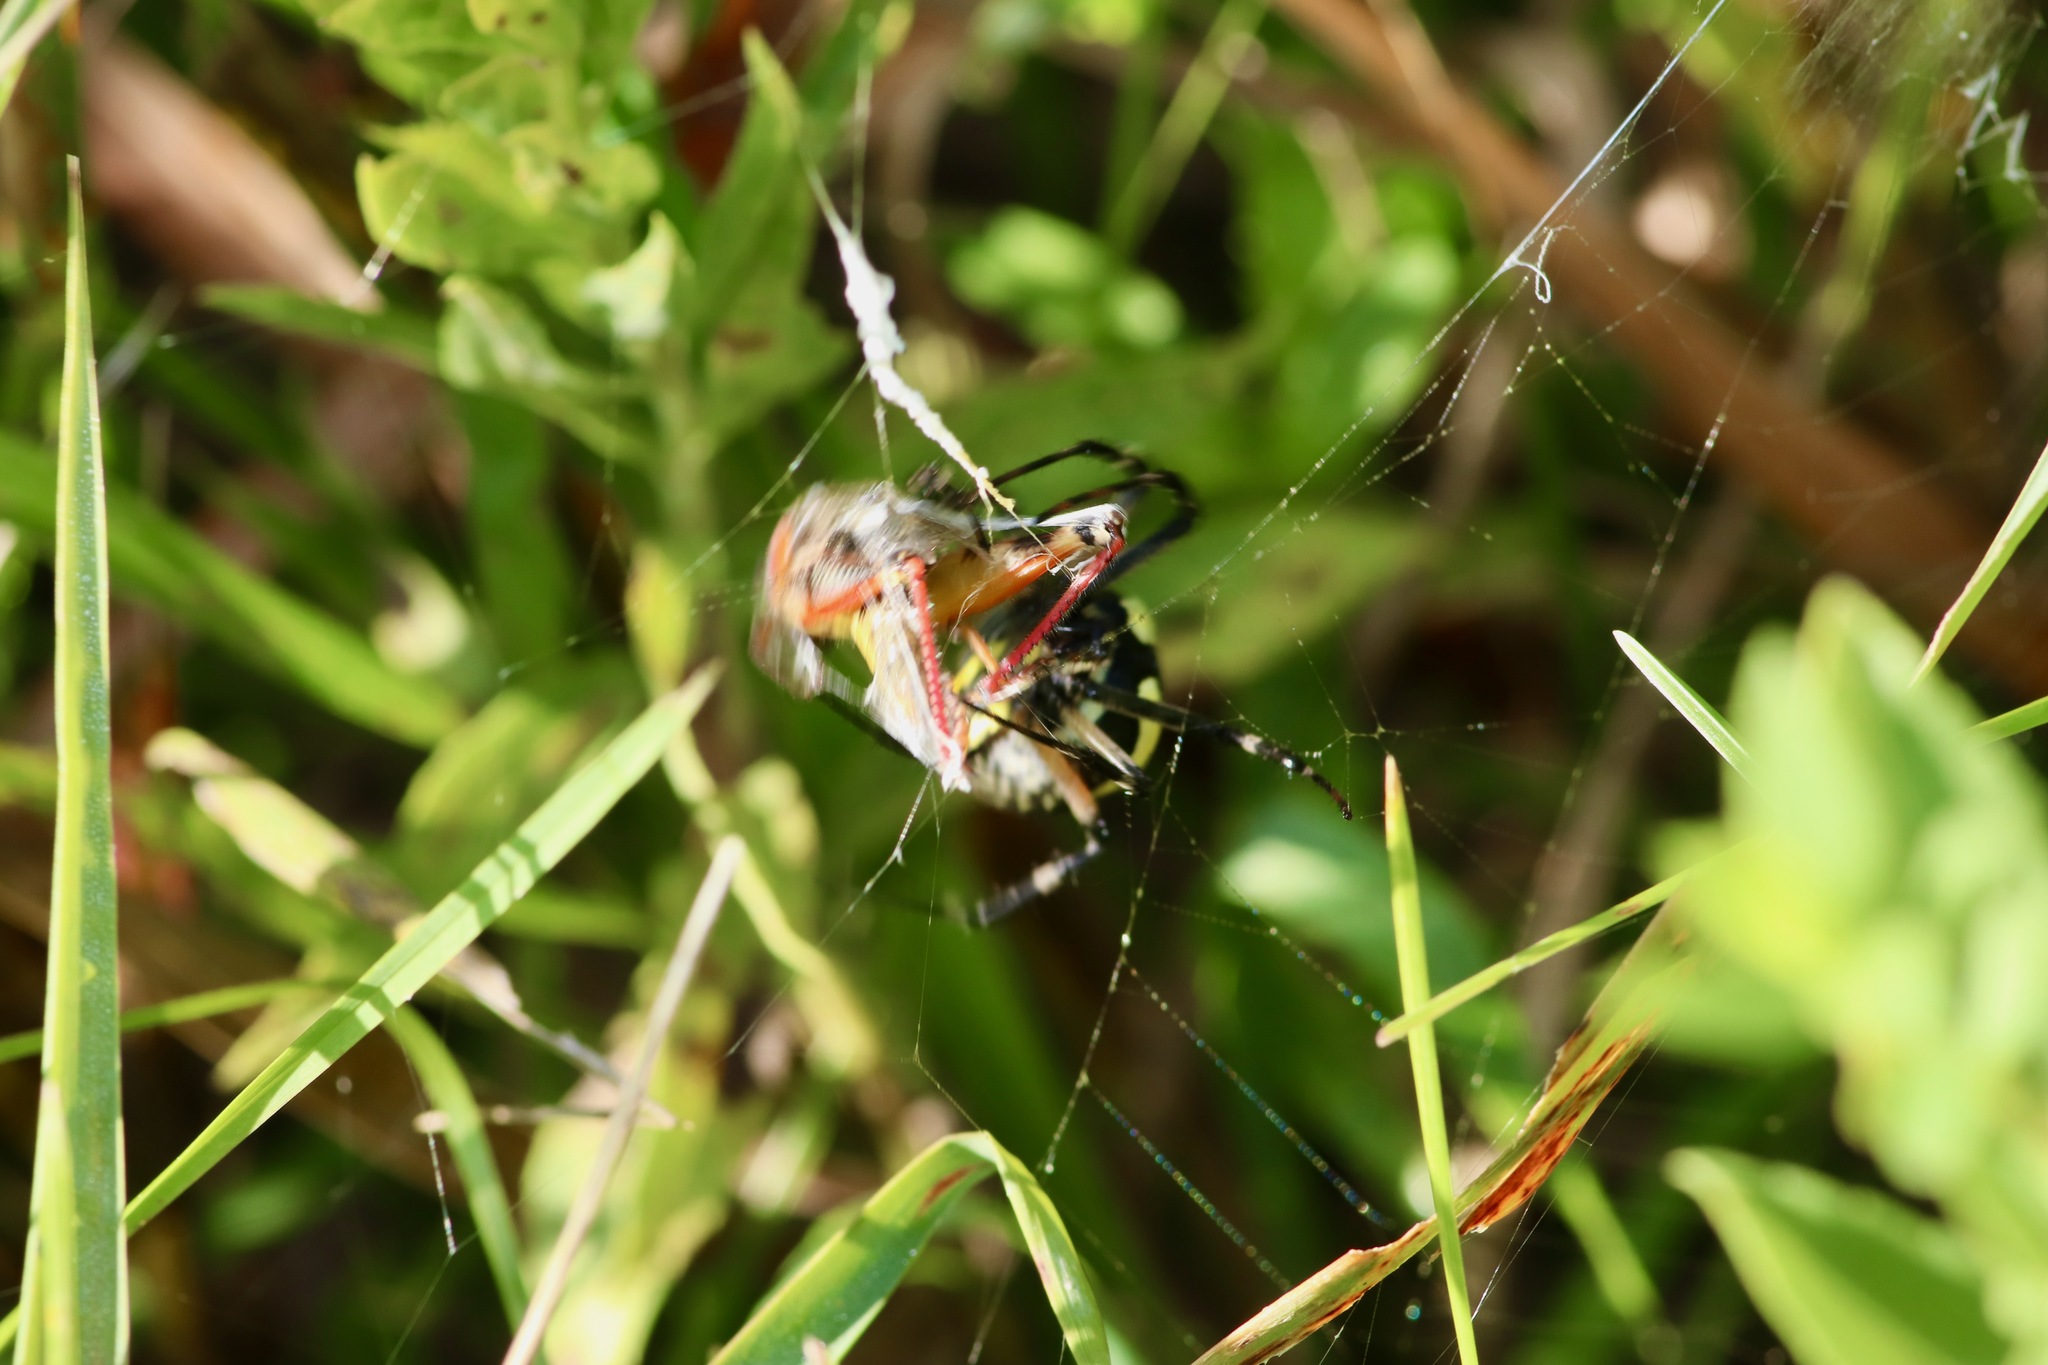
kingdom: Animalia
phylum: Arthropoda
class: Arachnida
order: Araneae
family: Araneidae
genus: Argiope
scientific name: Argiope aurantia
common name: Orb weavers
